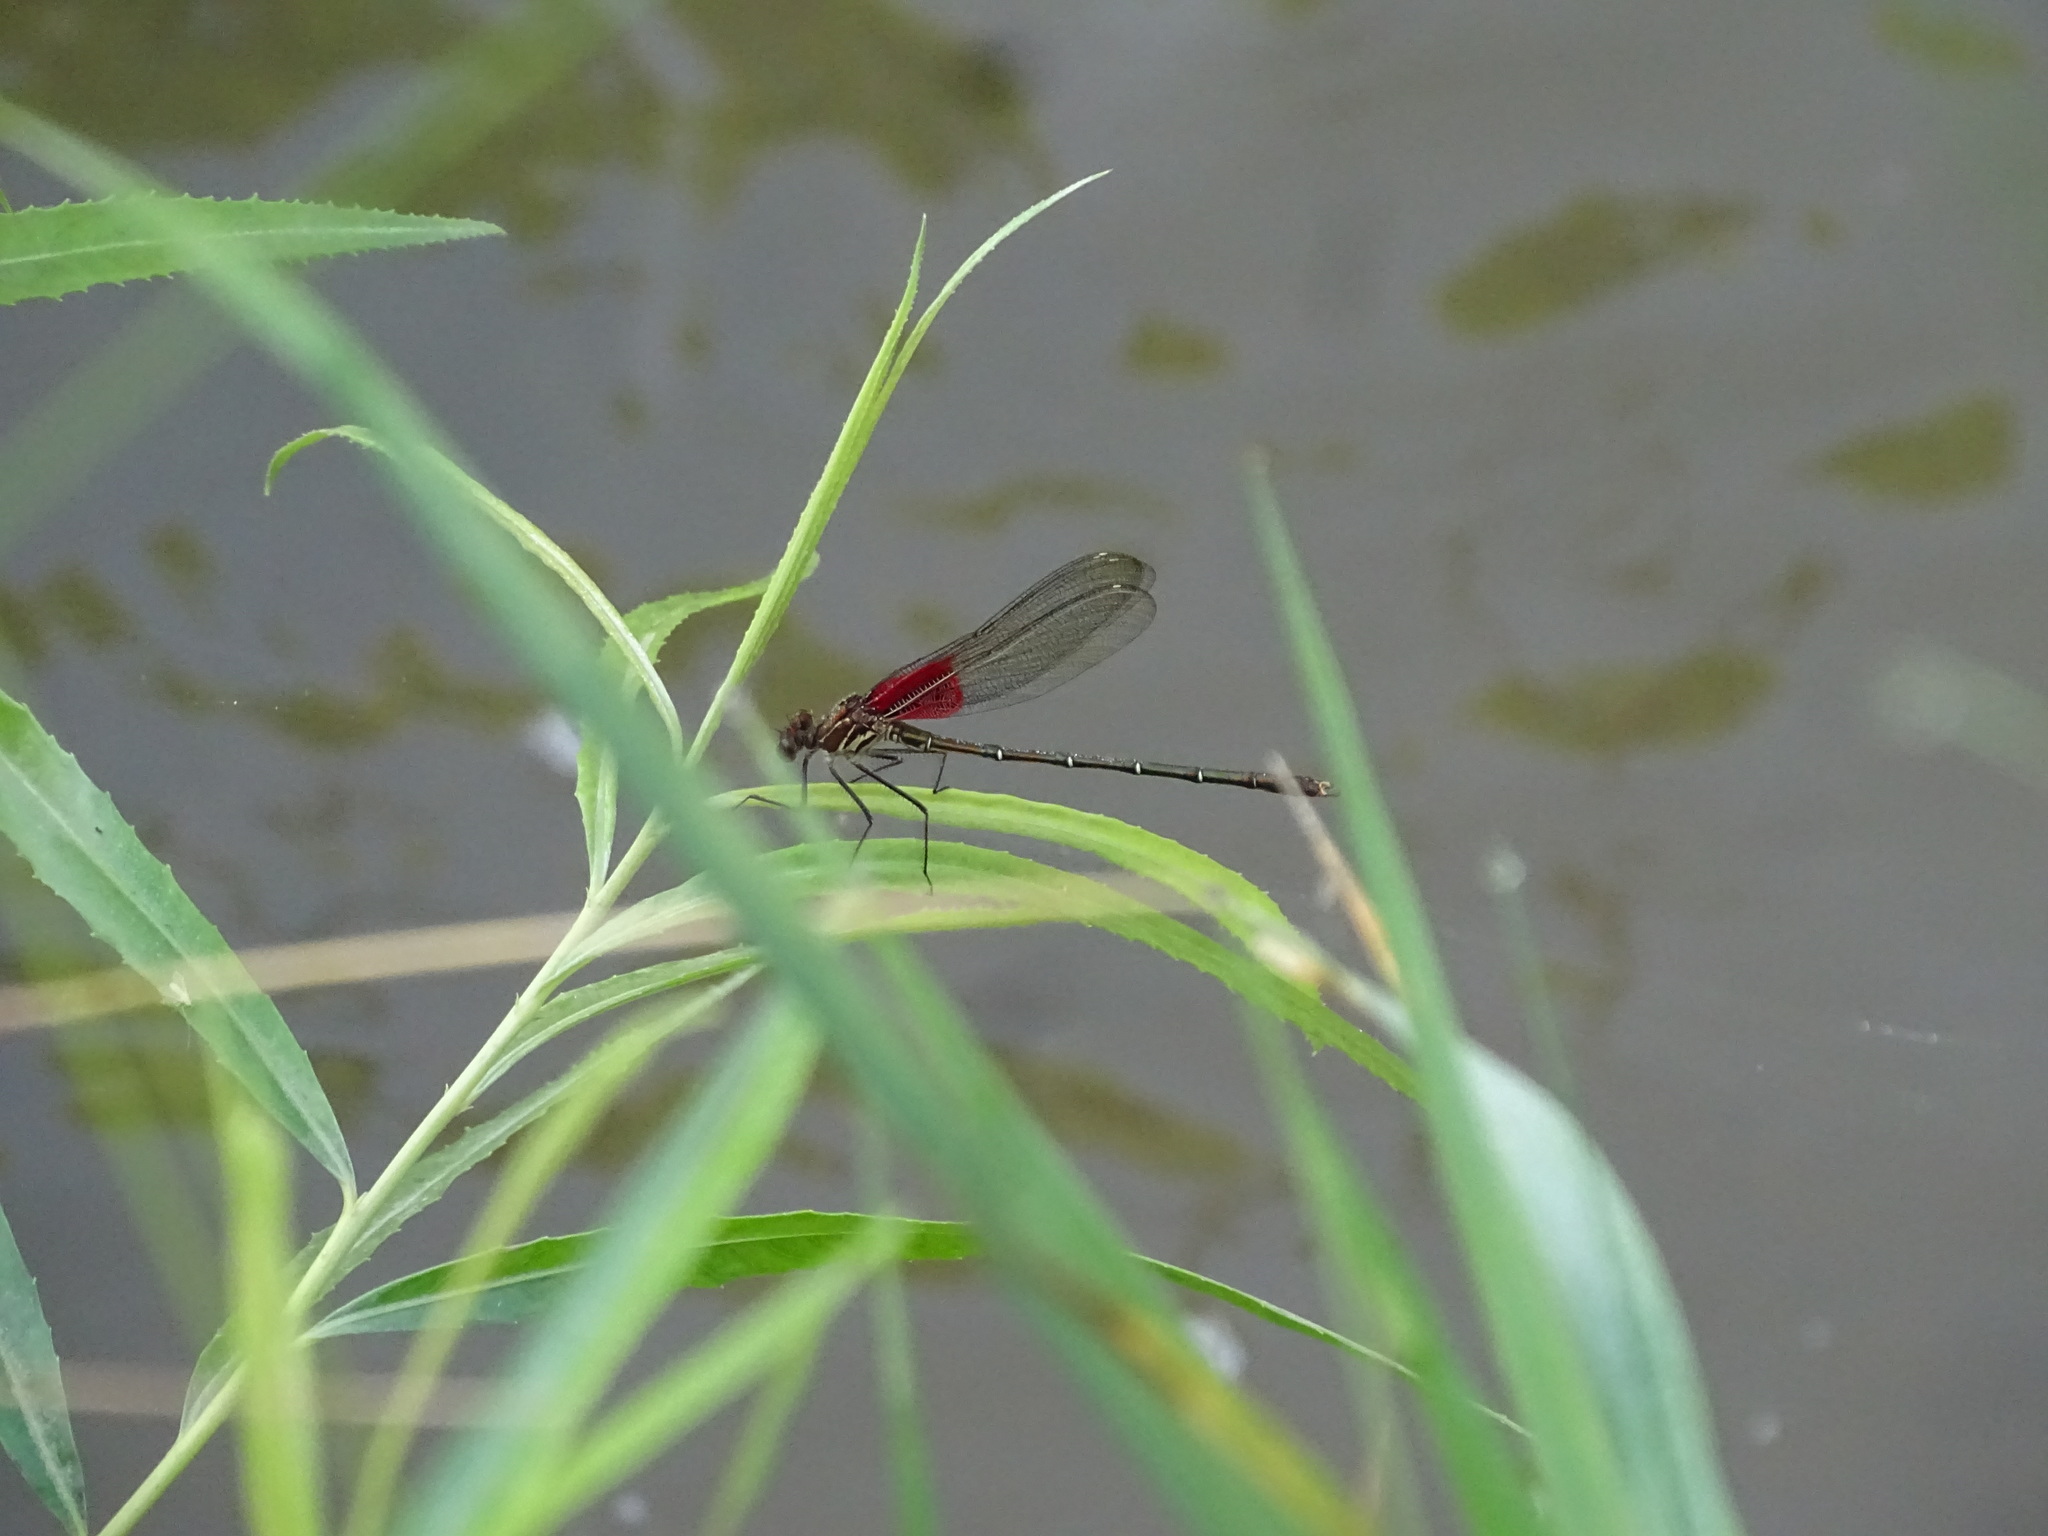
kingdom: Animalia
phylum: Arthropoda
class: Insecta
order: Odonata
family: Calopterygidae
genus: Hetaerina
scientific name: Hetaerina americana
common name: American rubyspot
